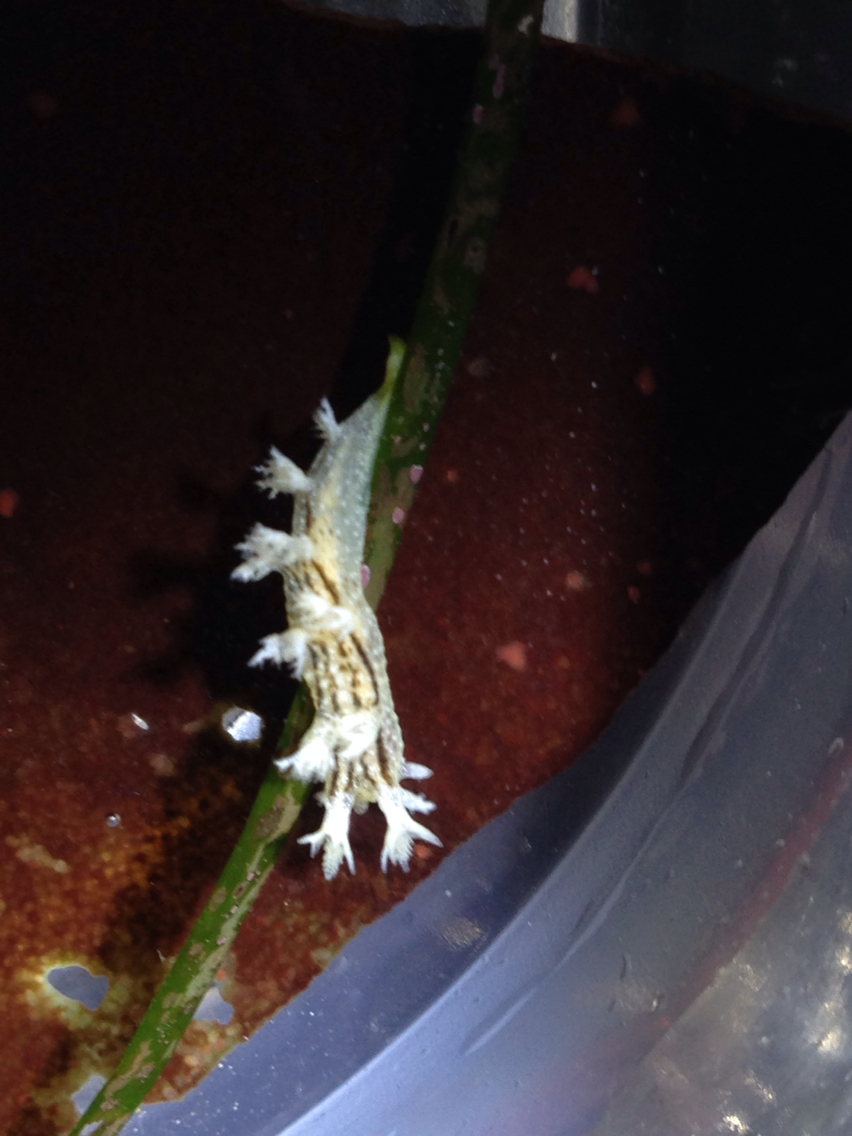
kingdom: Animalia
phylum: Mollusca
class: Gastropoda
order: Nudibranchia
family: Dendronotidae
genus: Dendronotus
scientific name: Dendronotus subramosus
